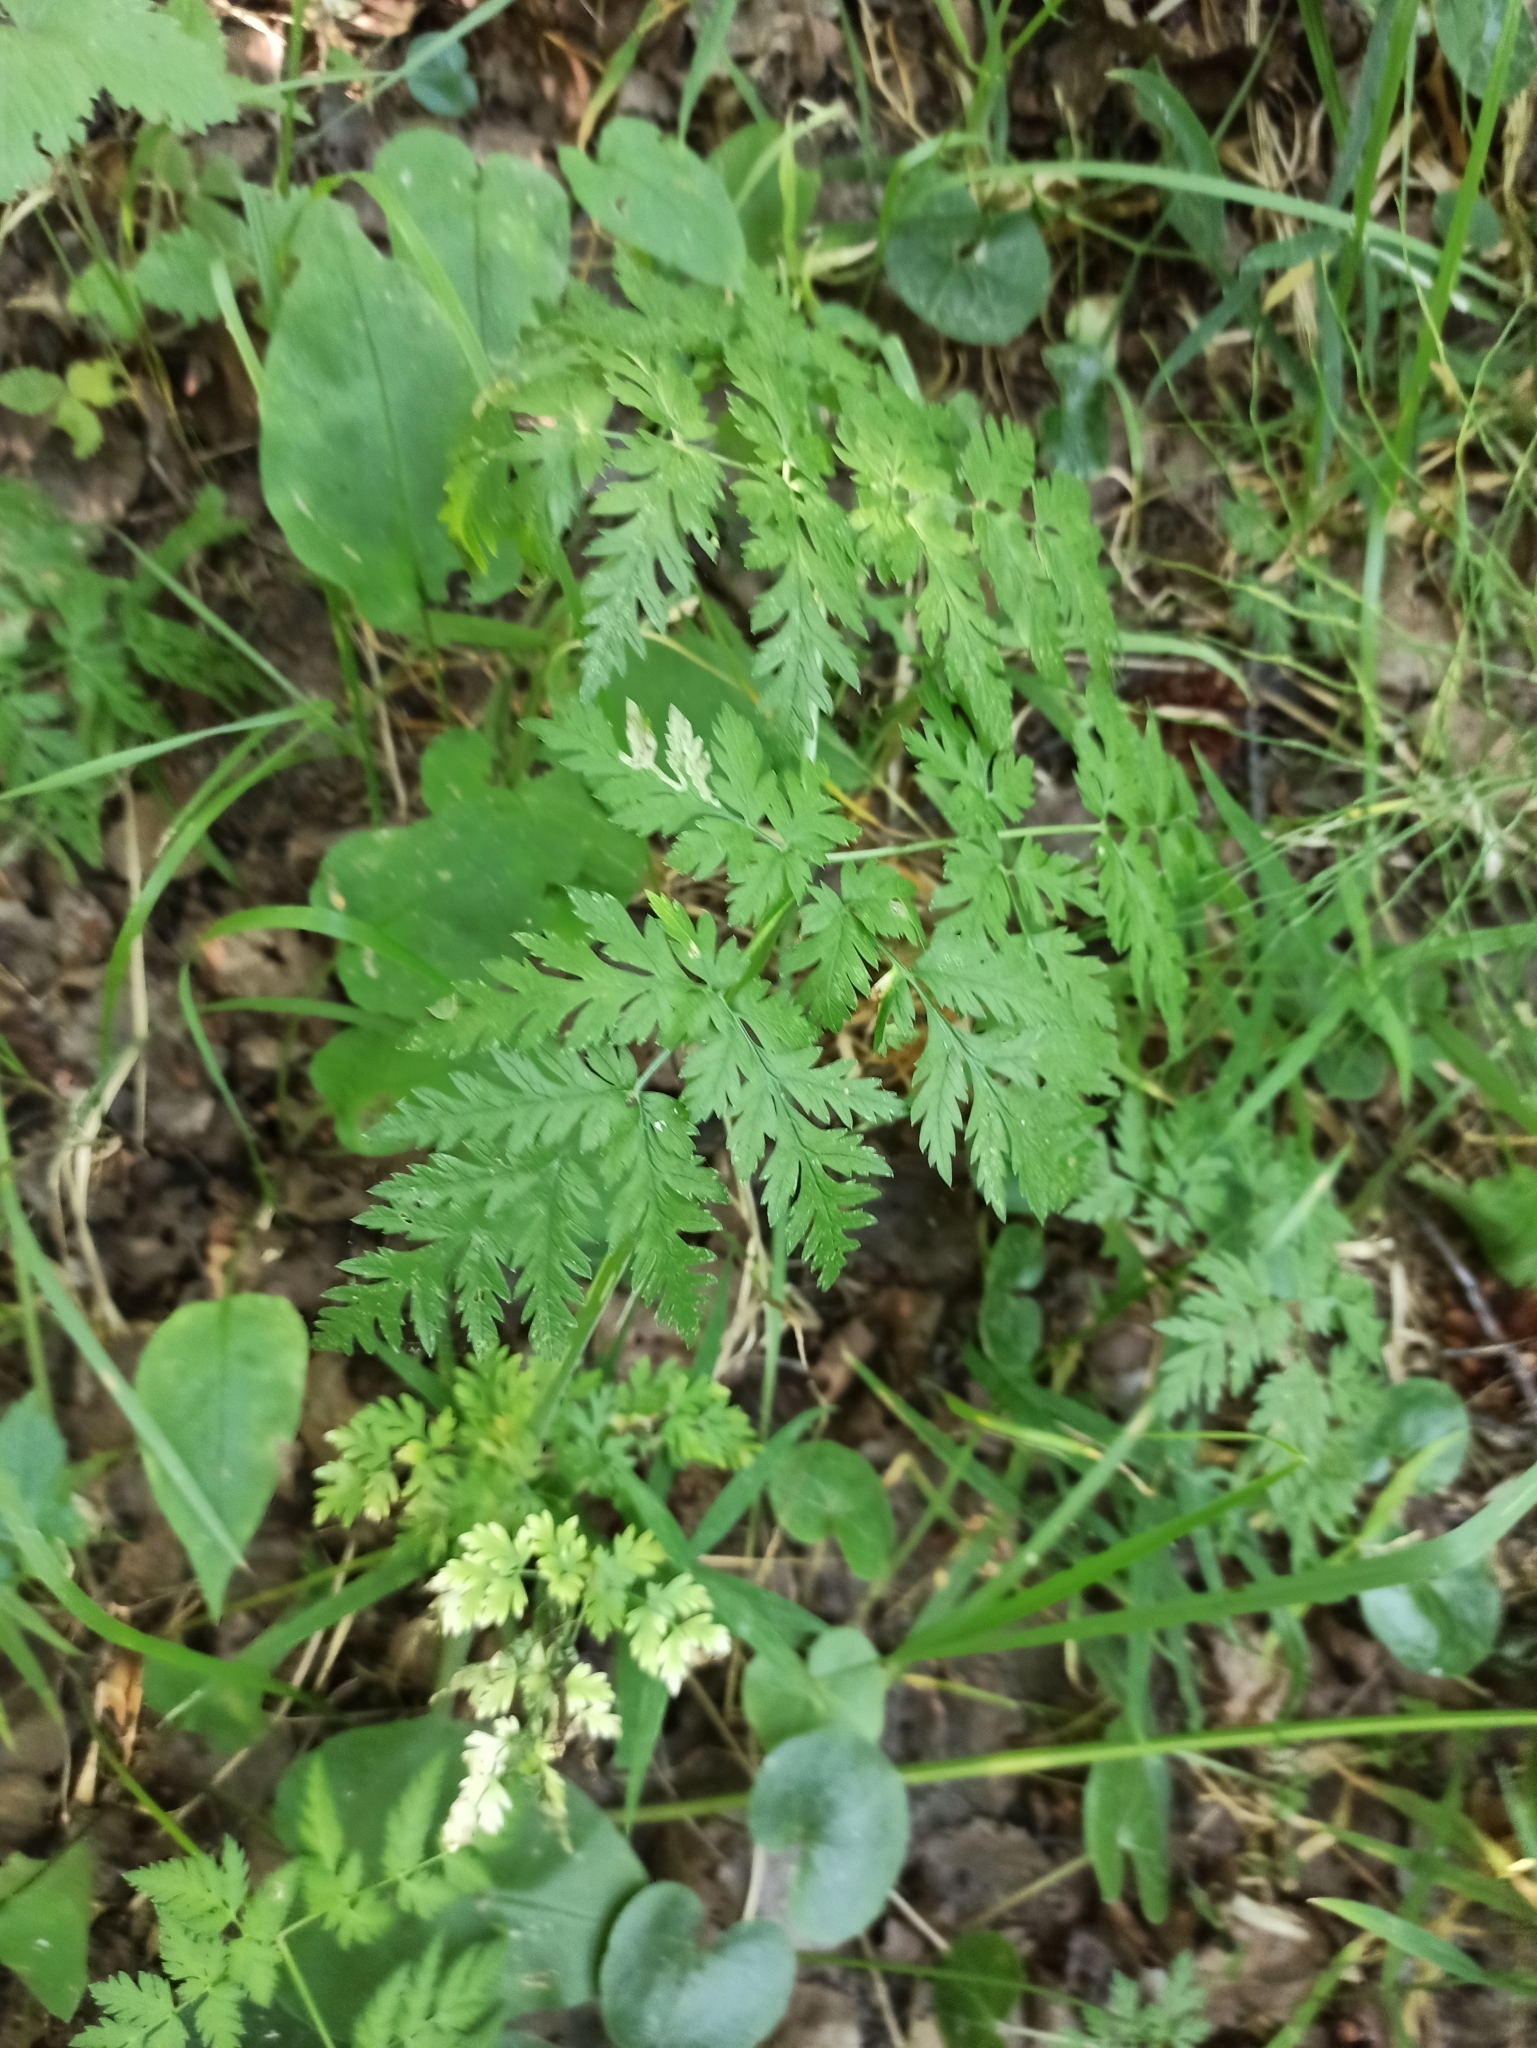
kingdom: Plantae
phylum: Tracheophyta
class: Magnoliopsida
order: Apiales
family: Apiaceae
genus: Anthriscus
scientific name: Anthriscus sylvestris
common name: Cow parsley
